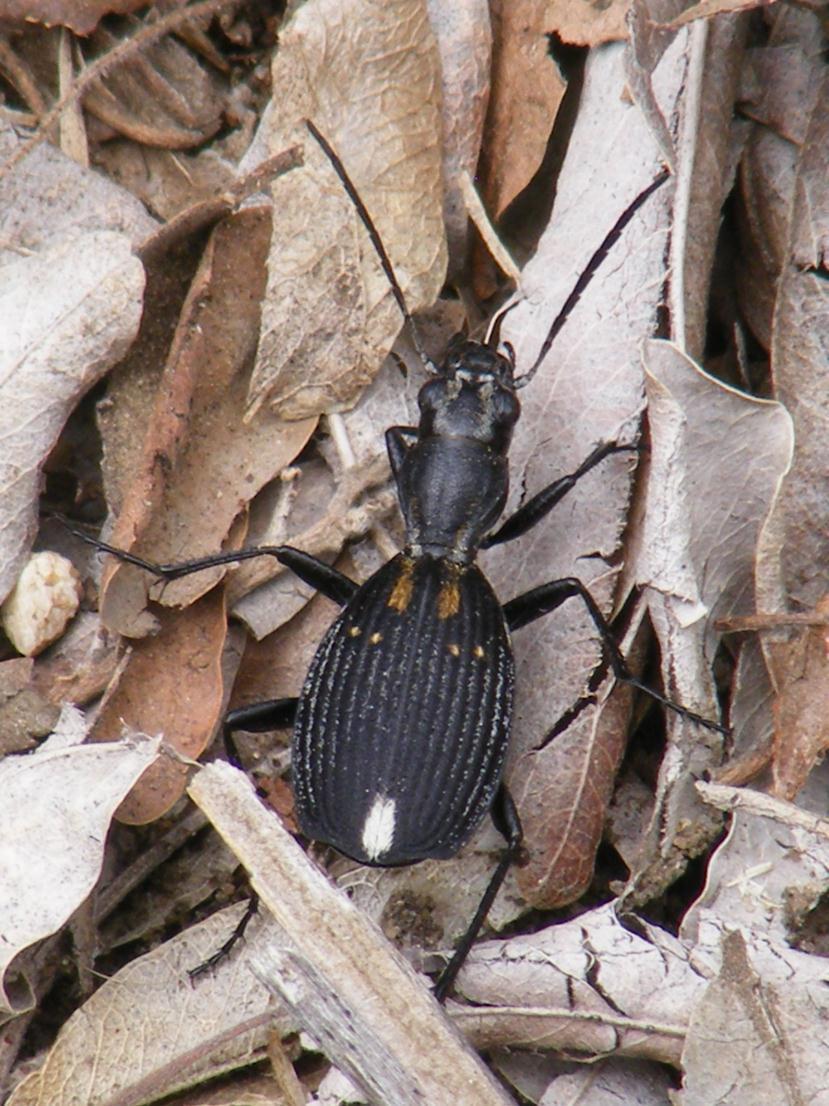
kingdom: Animalia
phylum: Arthropoda
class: Insecta
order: Coleoptera
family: Carabidae
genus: Piezia
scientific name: Piezia angusticollis
